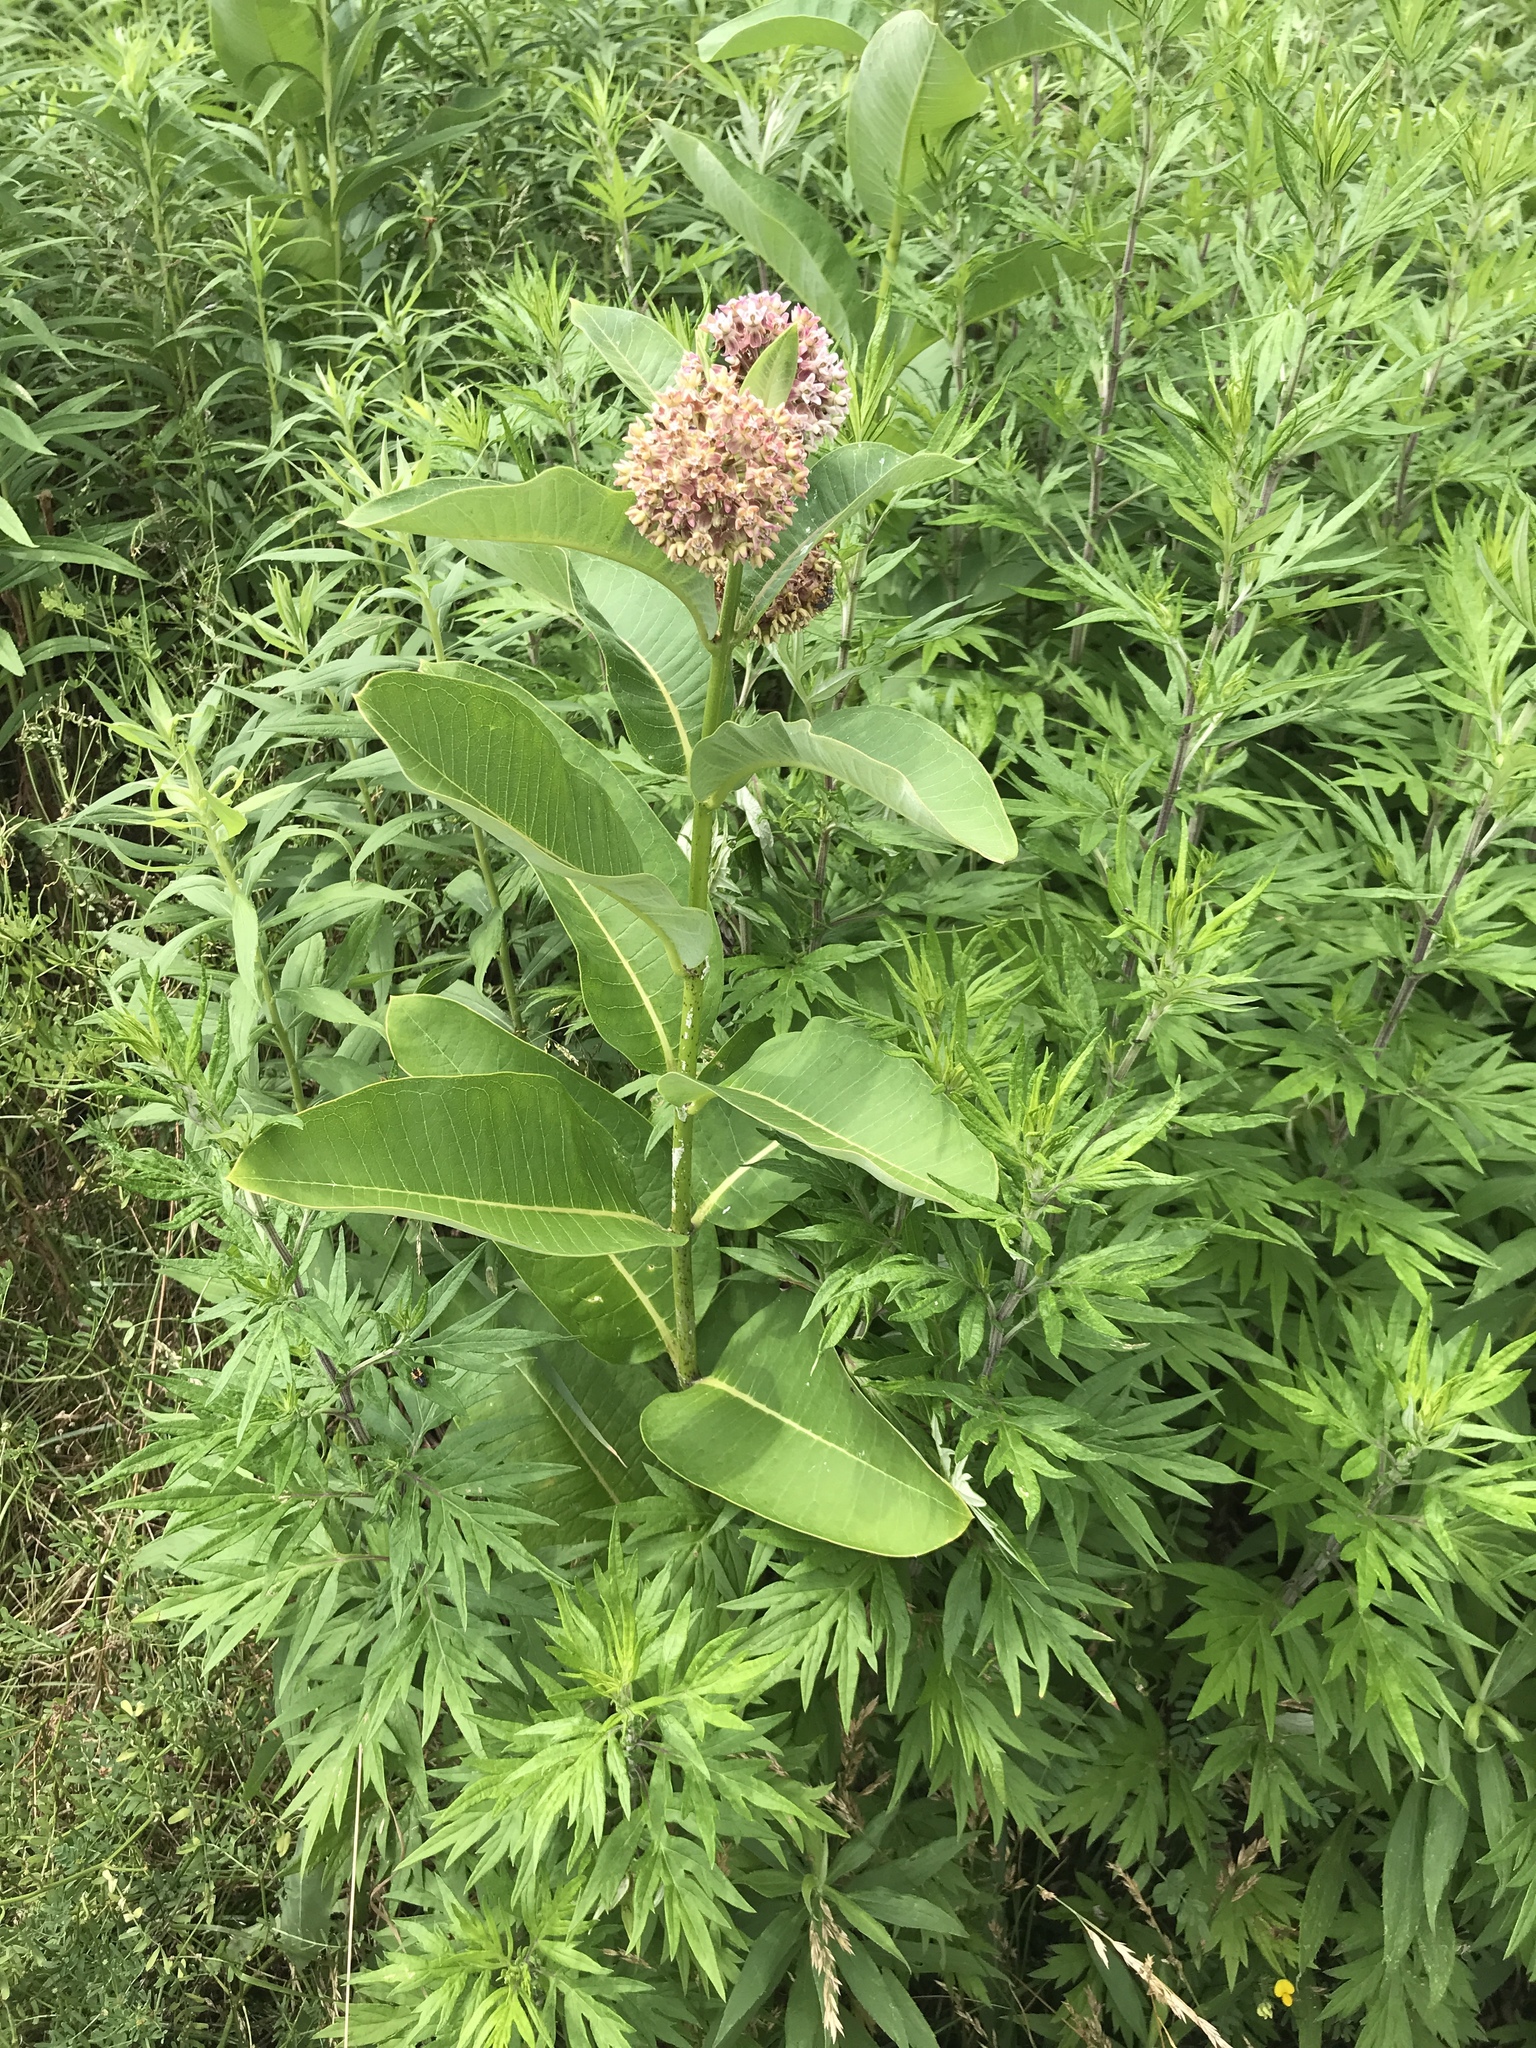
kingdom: Plantae
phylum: Tracheophyta
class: Magnoliopsida
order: Gentianales
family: Apocynaceae
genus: Asclepias
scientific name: Asclepias syriaca
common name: Common milkweed
